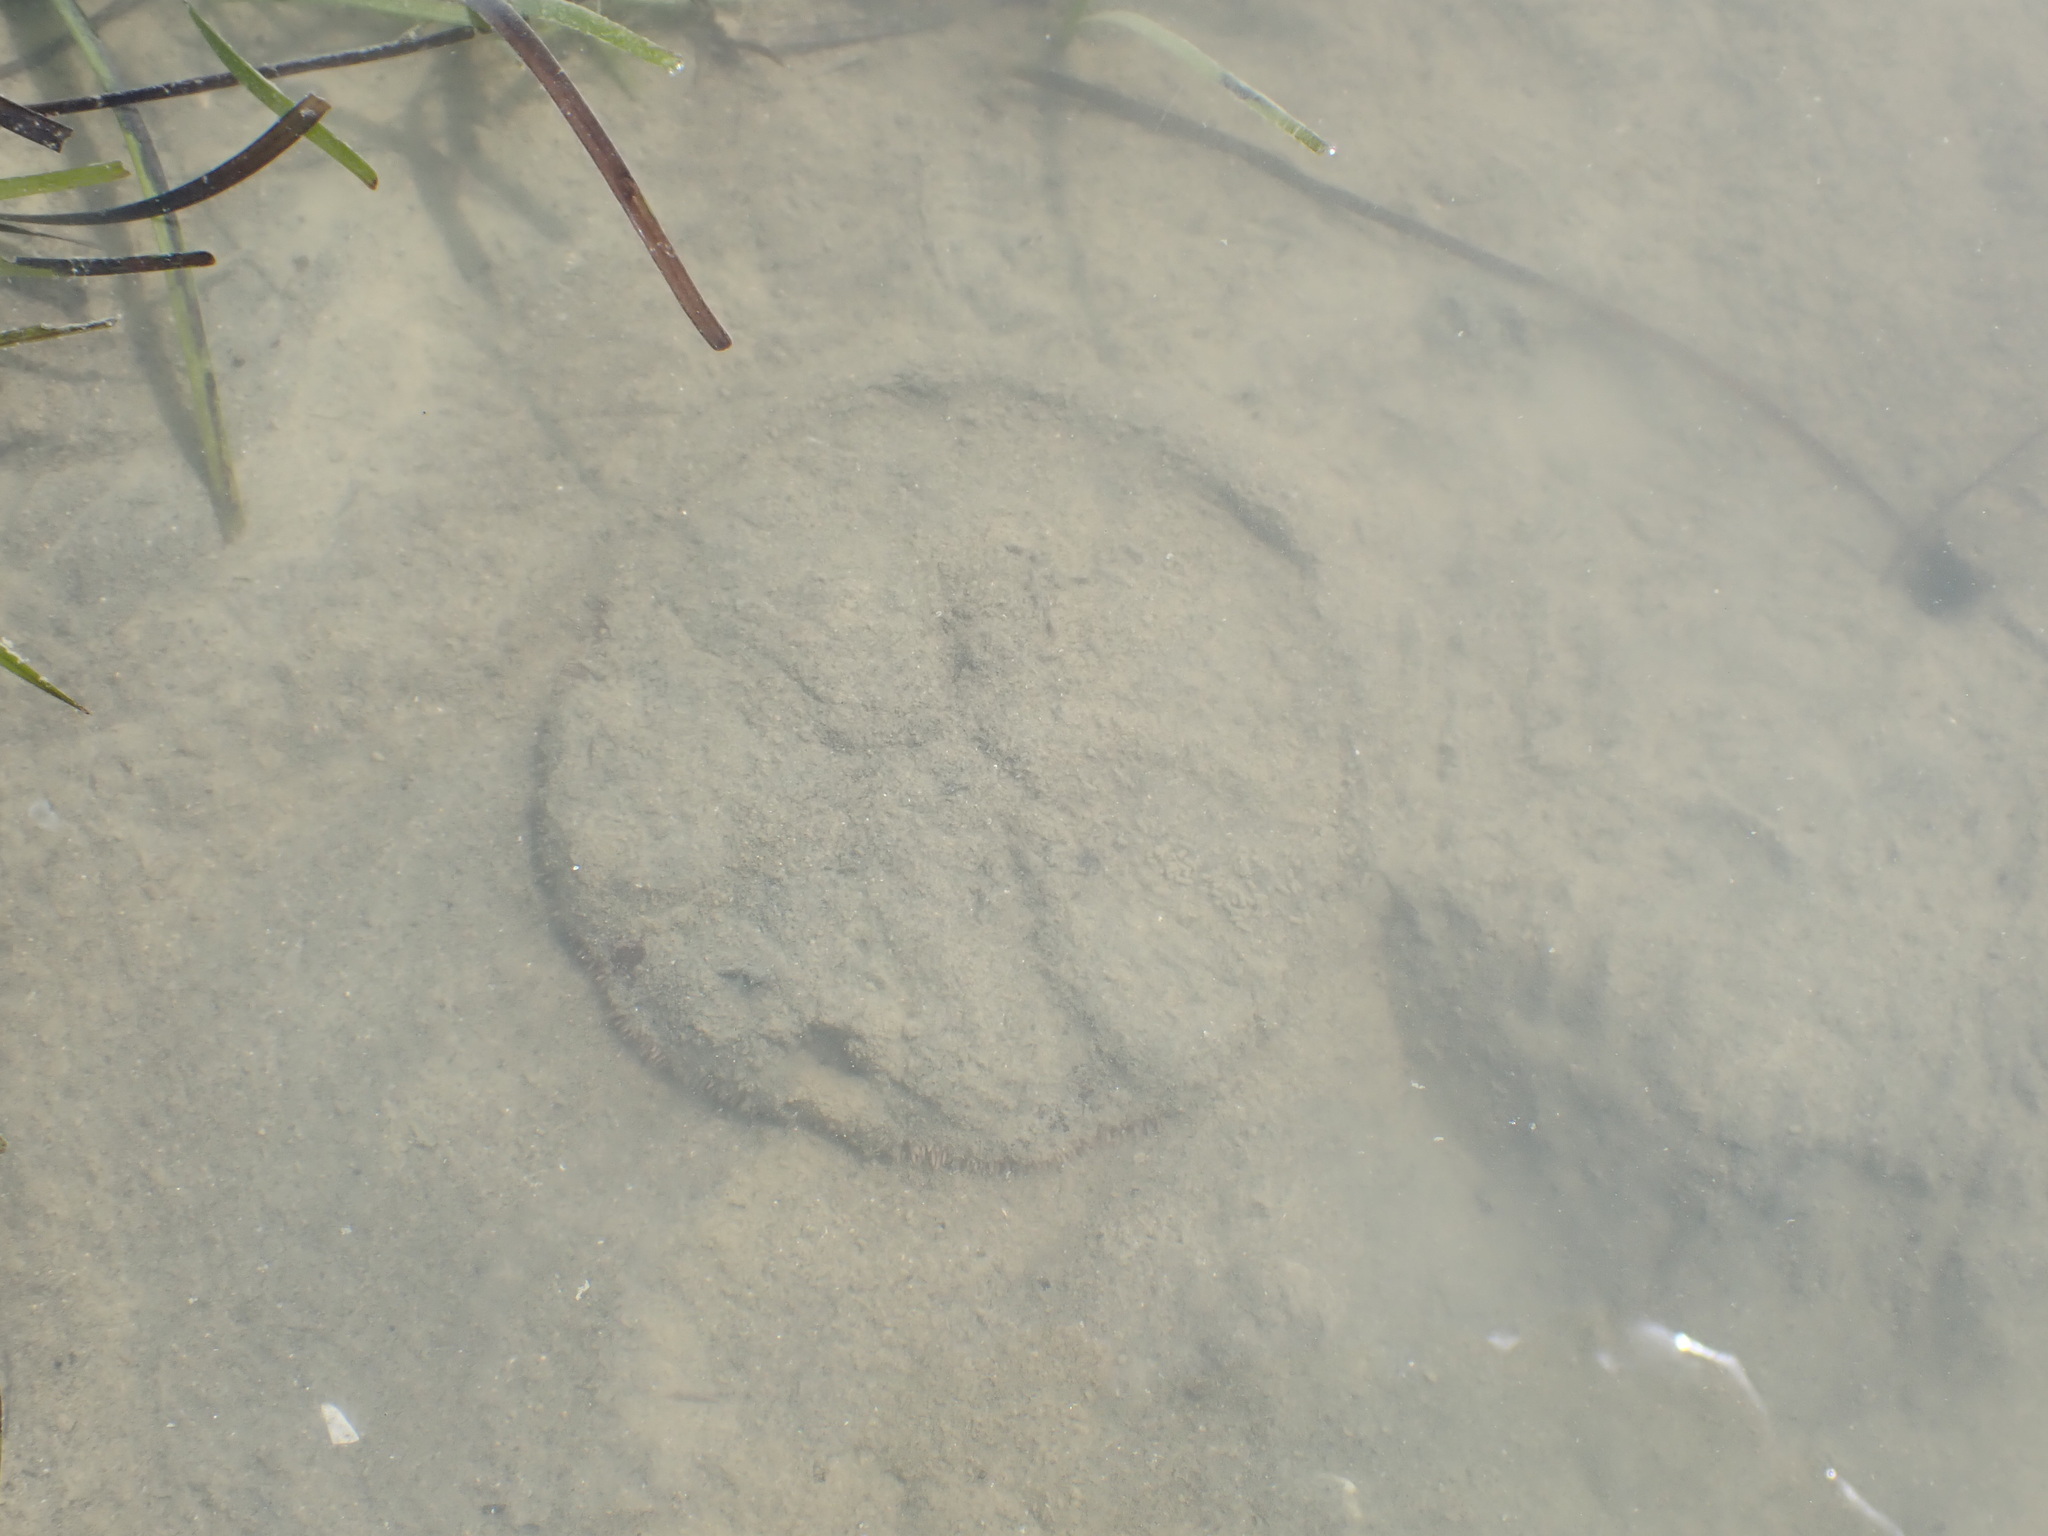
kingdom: Animalia
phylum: Echinodermata
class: Echinoidea
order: Clypeasteroida
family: Clypeasteridae
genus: Fellaster
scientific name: Fellaster zelandiae
